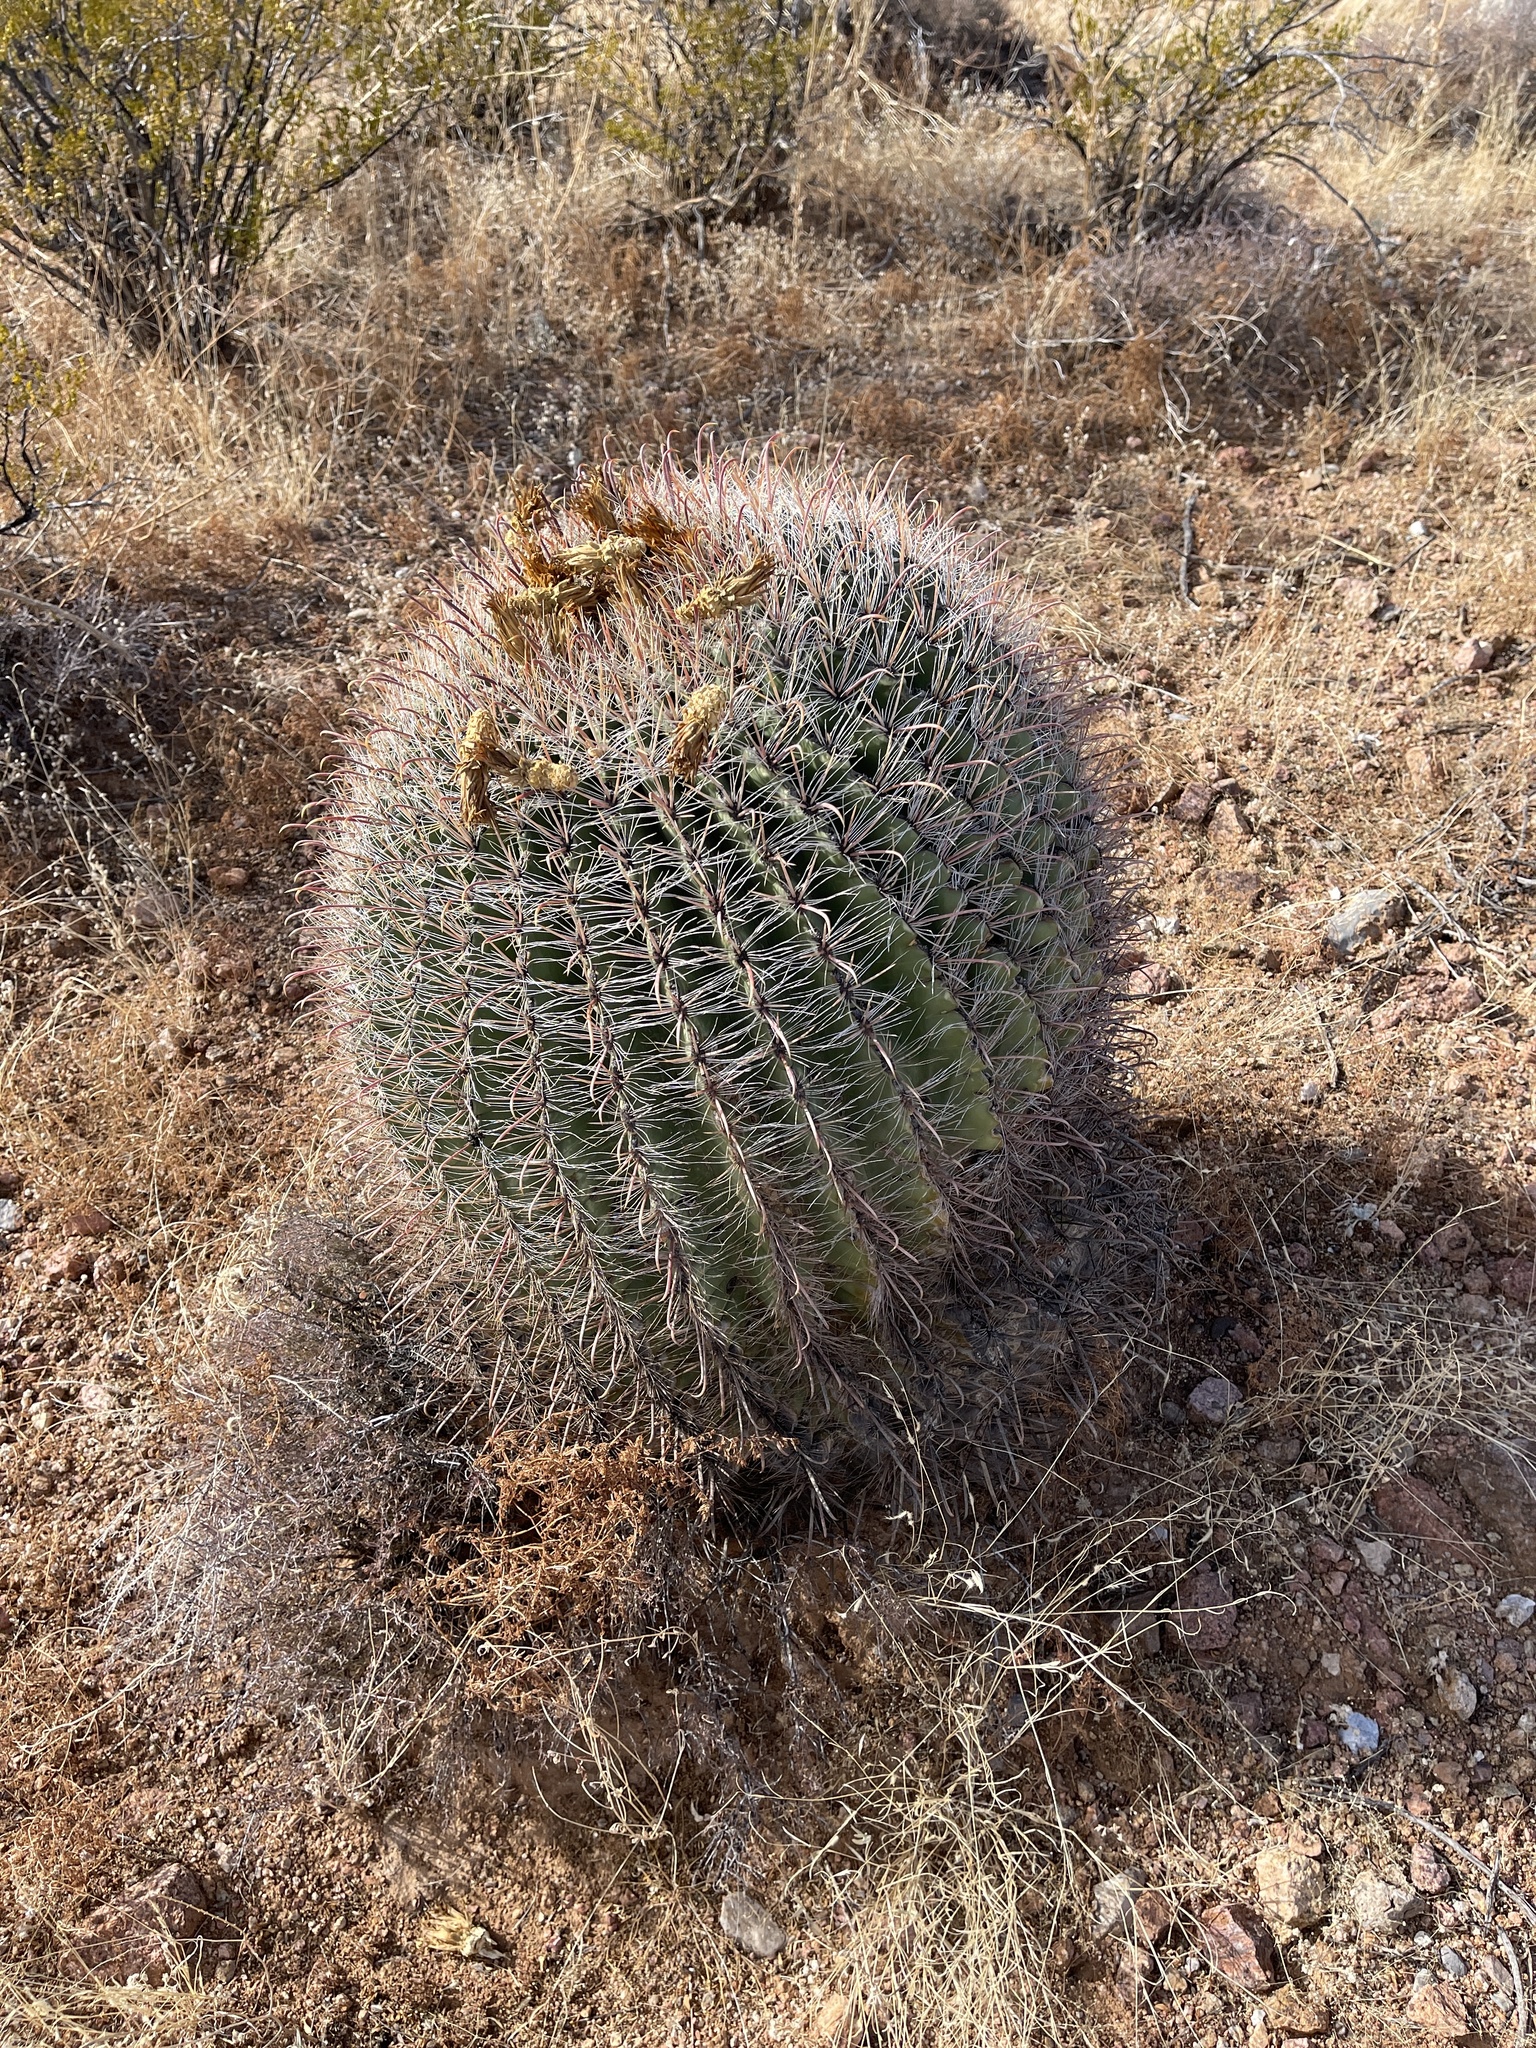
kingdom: Plantae
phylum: Tracheophyta
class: Magnoliopsida
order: Caryophyllales
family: Cactaceae
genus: Ferocactus
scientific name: Ferocactus wislizeni
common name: Candy barrel cactus
